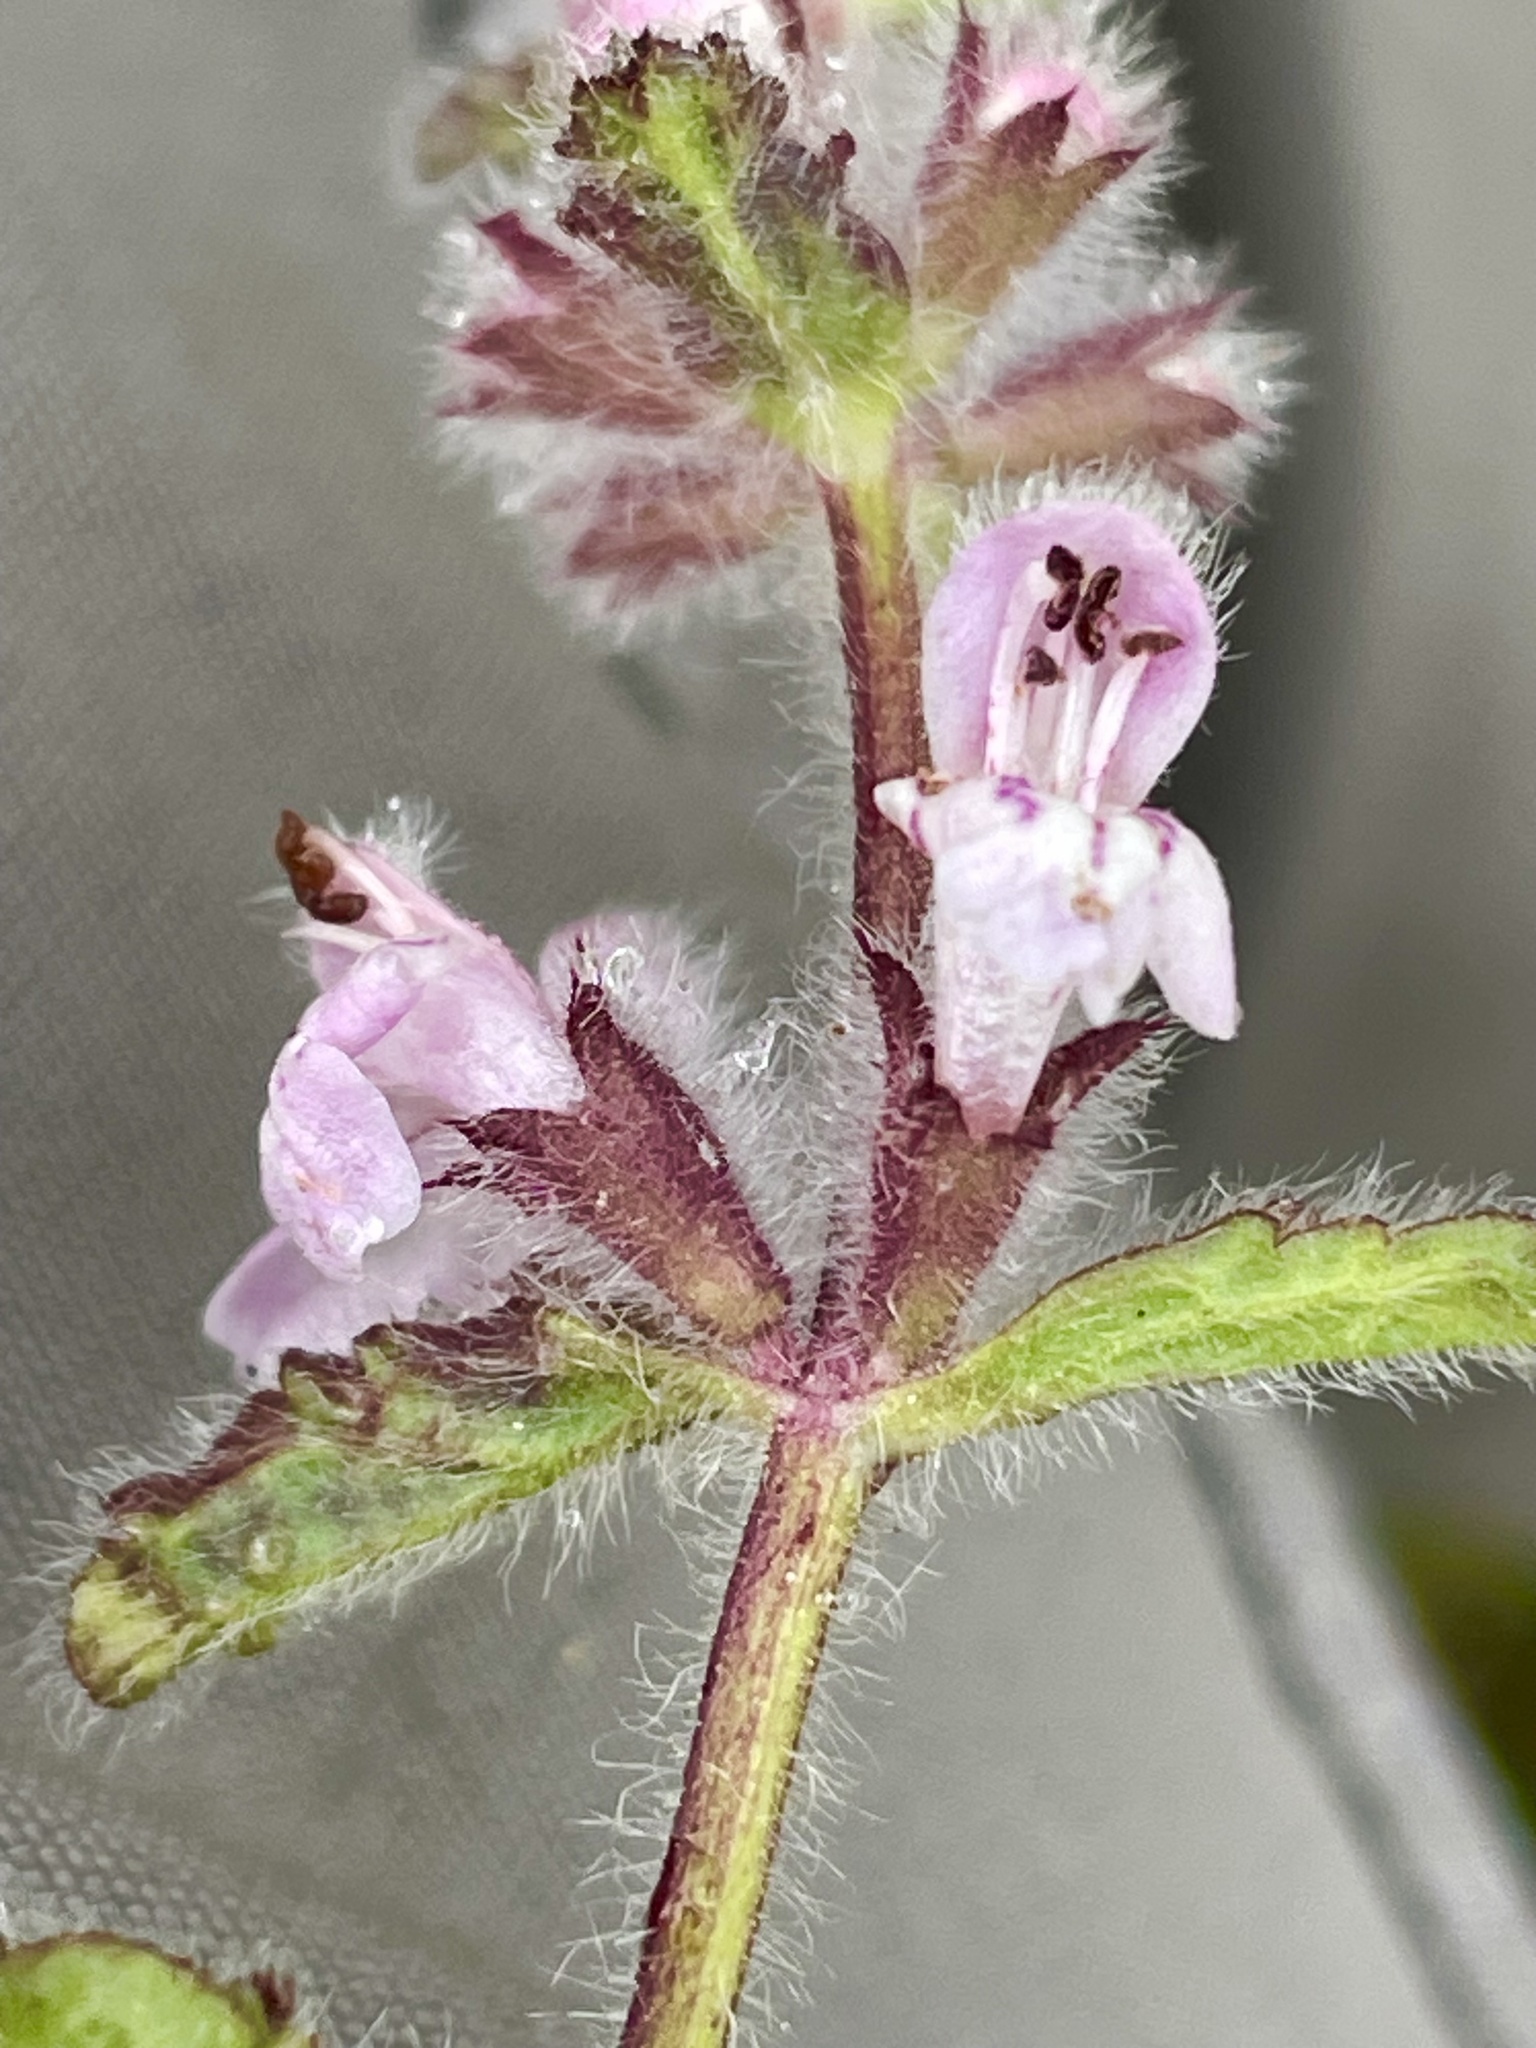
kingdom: Plantae
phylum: Tracheophyta
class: Magnoliopsida
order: Lamiales
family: Lamiaceae
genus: Stachys
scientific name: Stachys ajugoides
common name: Hedge-nettle
